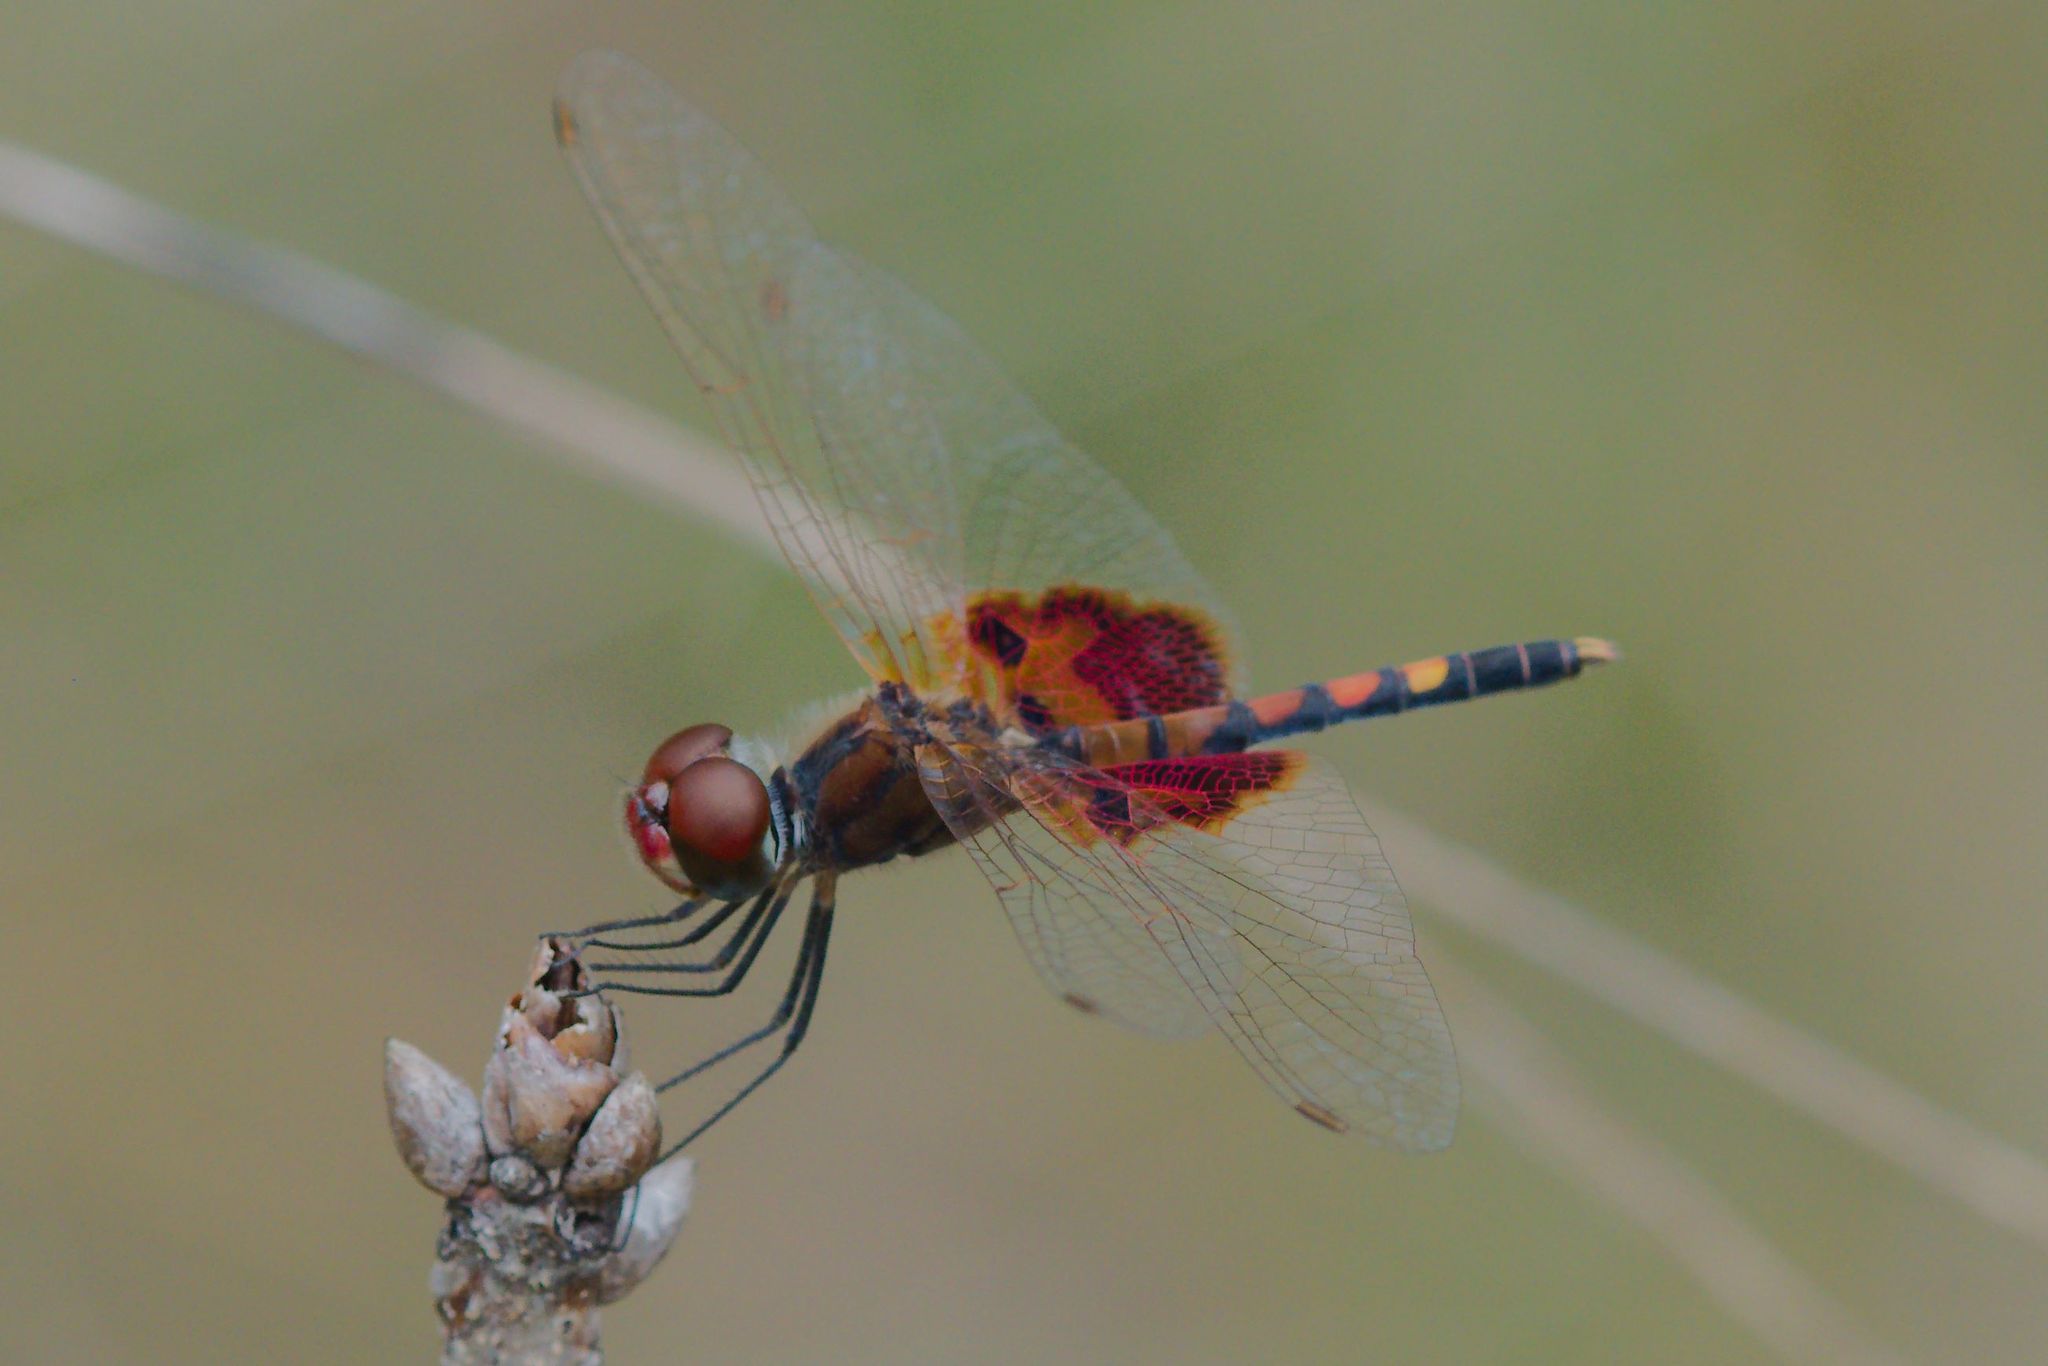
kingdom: Animalia
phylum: Arthropoda
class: Insecta
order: Odonata
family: Libellulidae
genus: Celithemis
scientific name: Celithemis amanda
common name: Amanda's pennant
